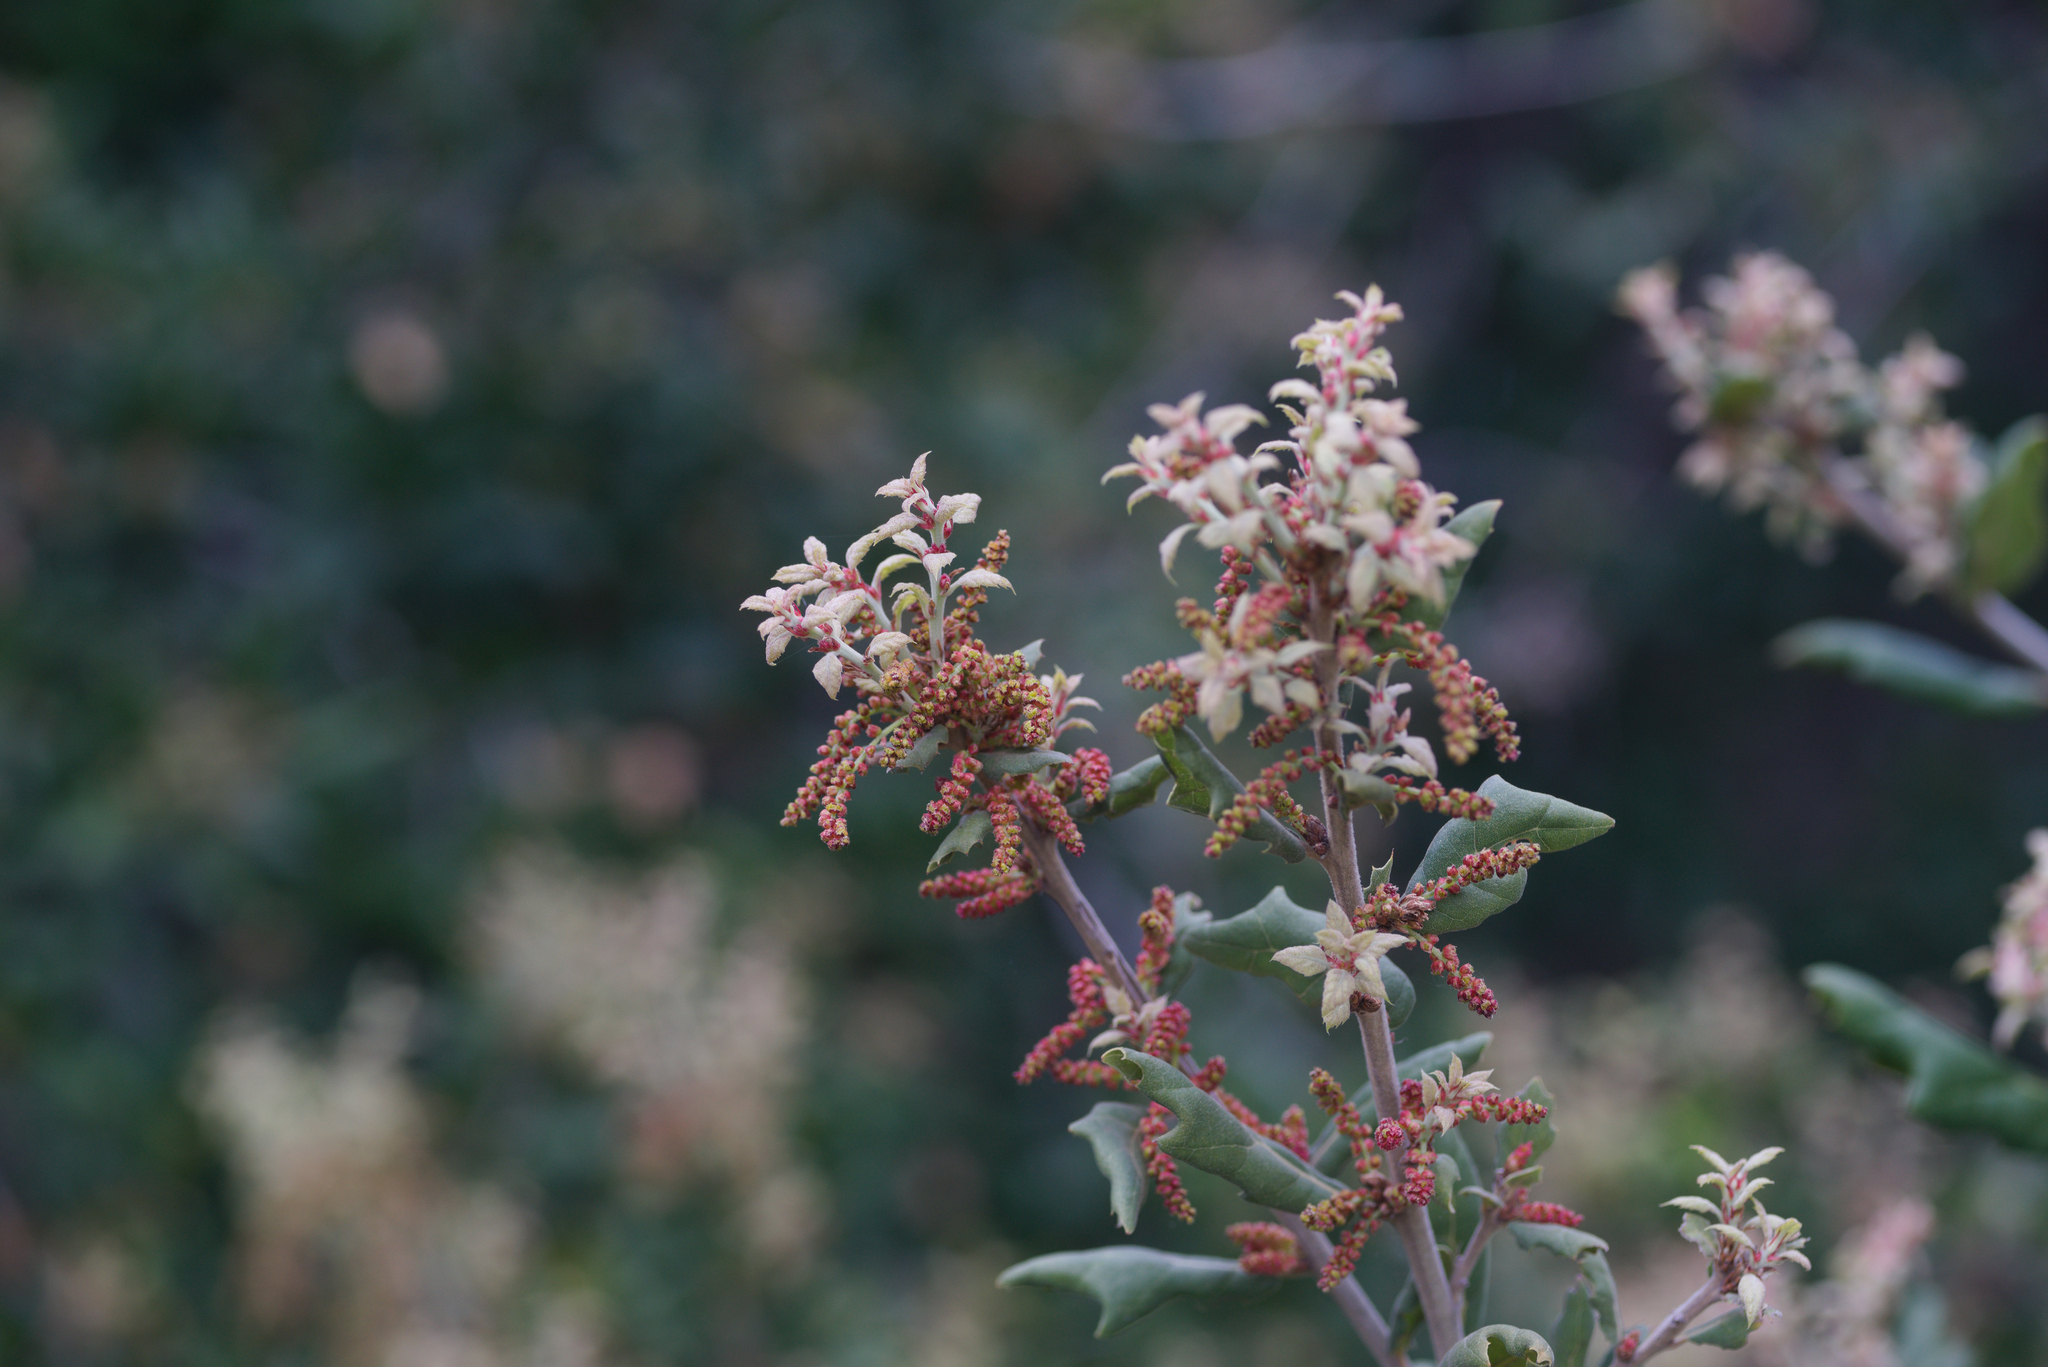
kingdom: Plantae
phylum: Tracheophyta
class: Magnoliopsida
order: Fagales
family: Fagaceae
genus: Quercus
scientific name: Quercus agrifolia
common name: California live oak
